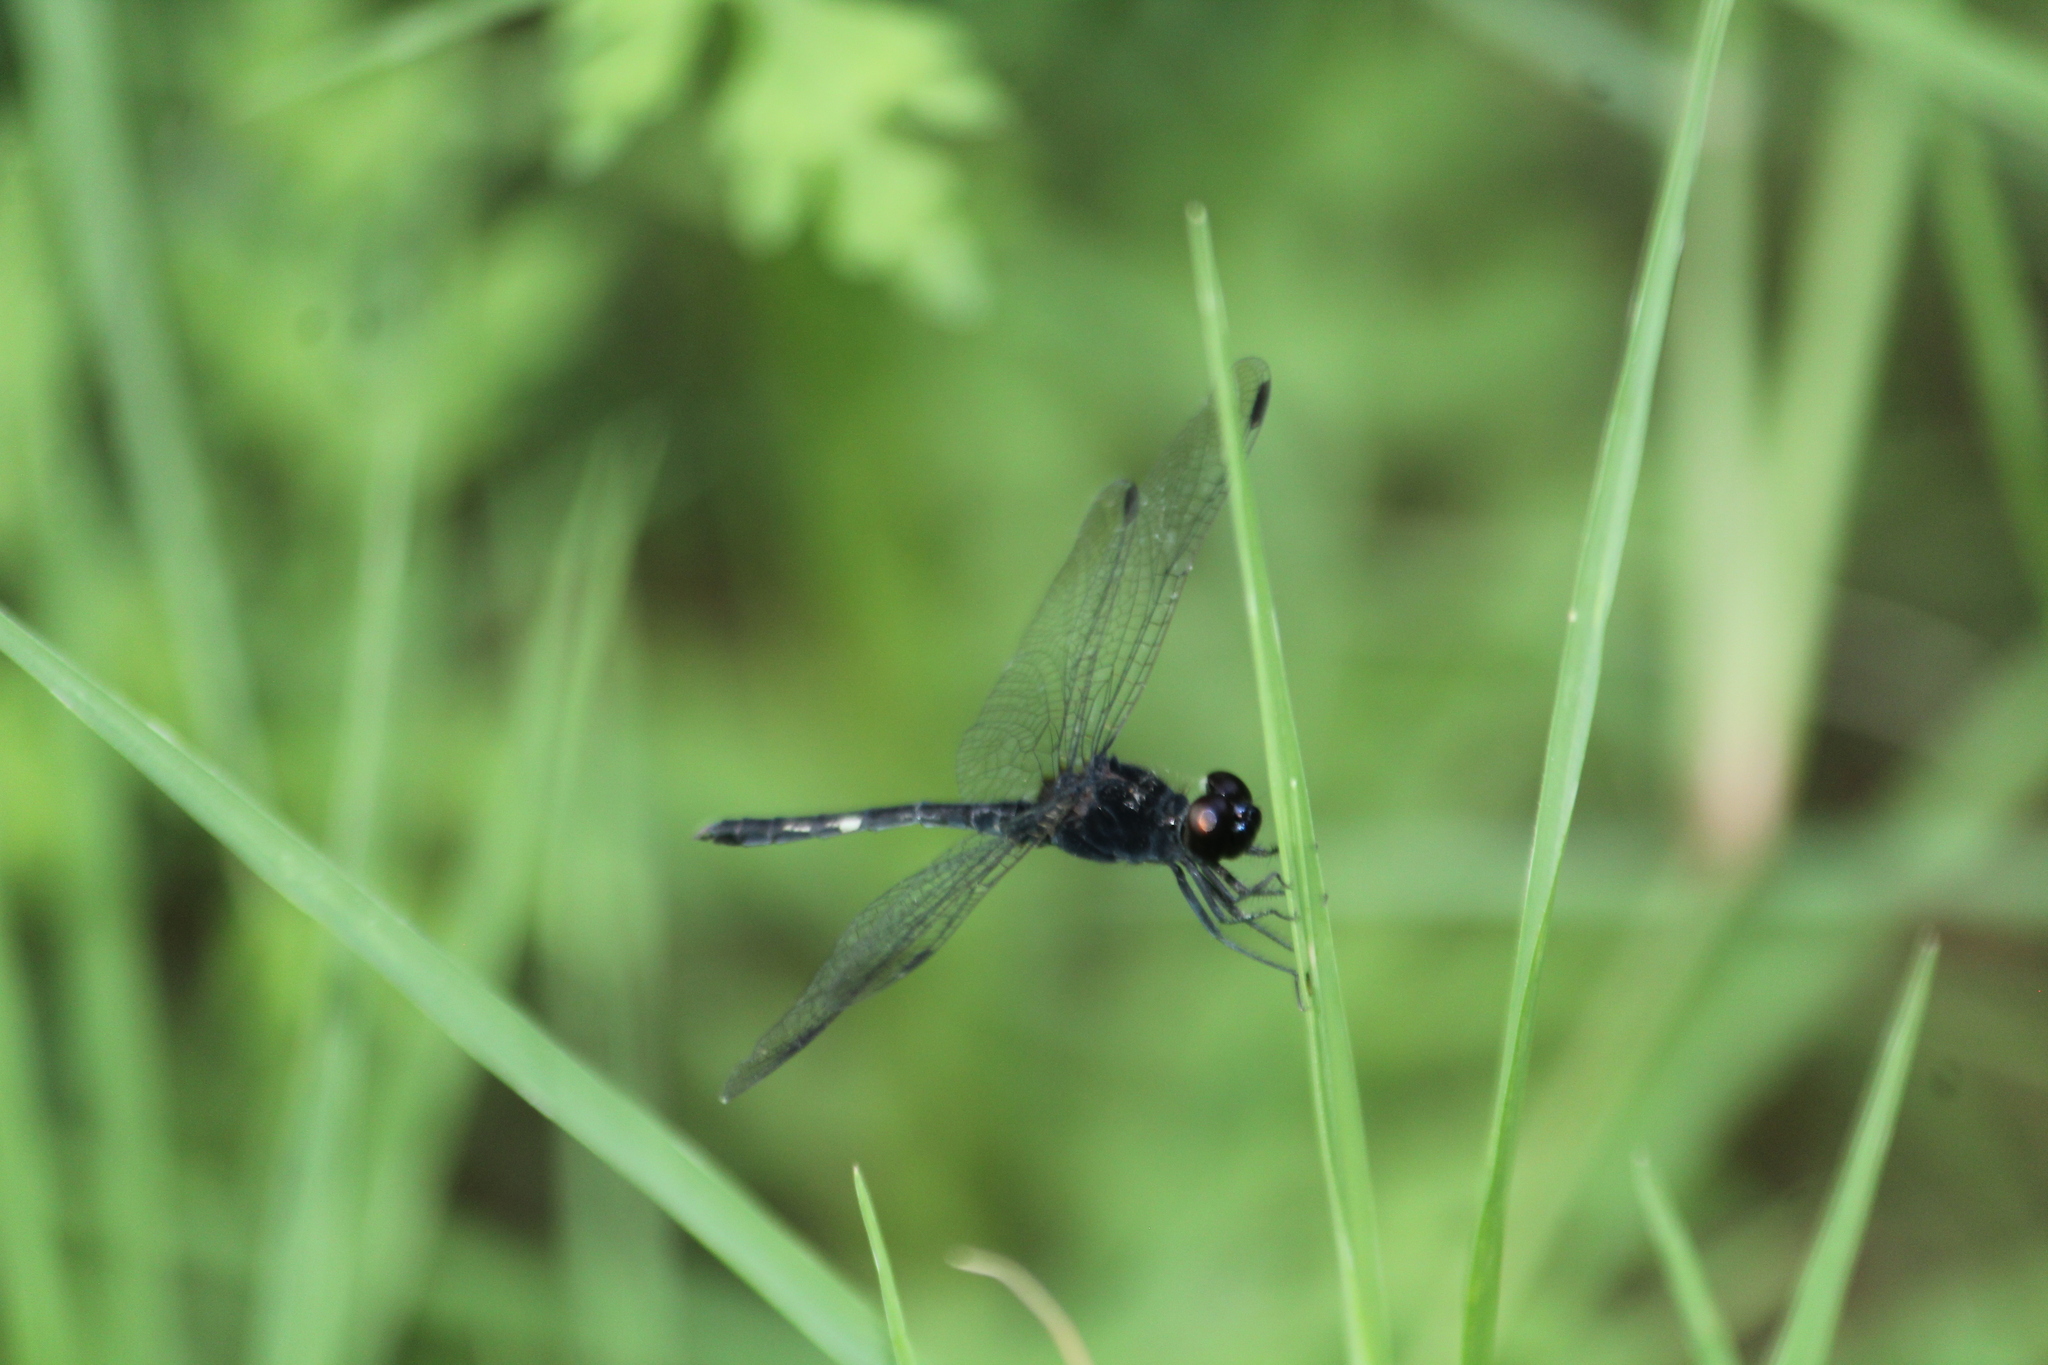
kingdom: Animalia
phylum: Arthropoda
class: Insecta
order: Odonata
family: Libellulidae
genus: Diplacodes
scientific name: Diplacodes lefebvrii
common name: Black percher
